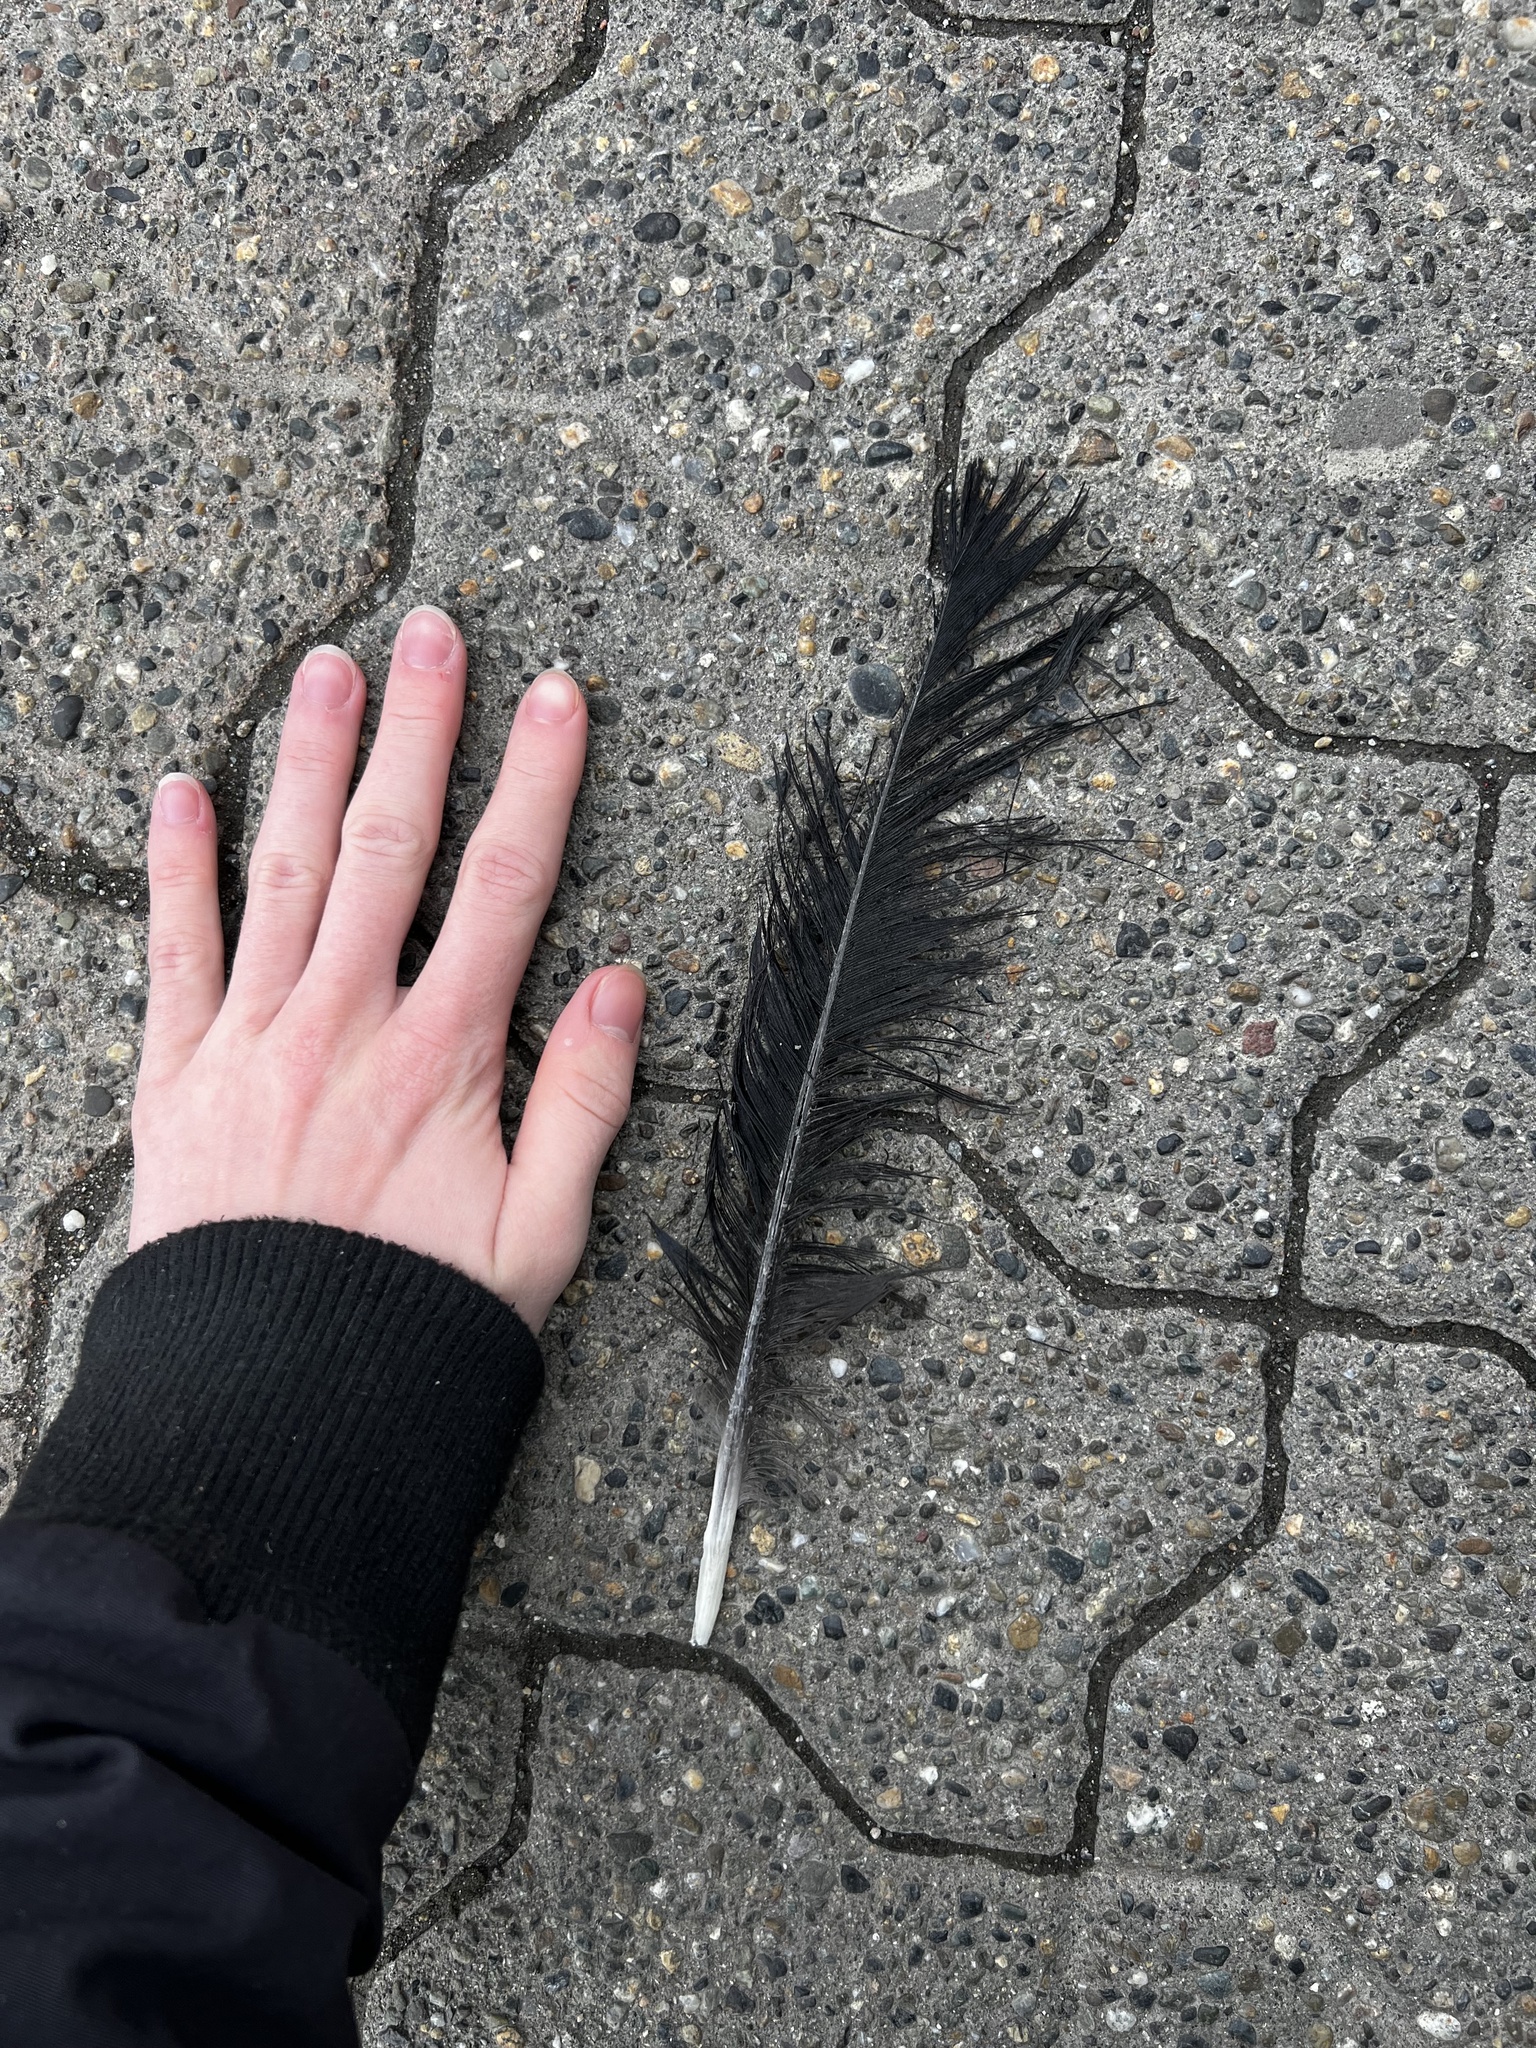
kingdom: Animalia
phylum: Chordata
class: Aves
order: Passeriformes
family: Corvidae
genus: Corvus
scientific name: Corvus corax
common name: Common raven
